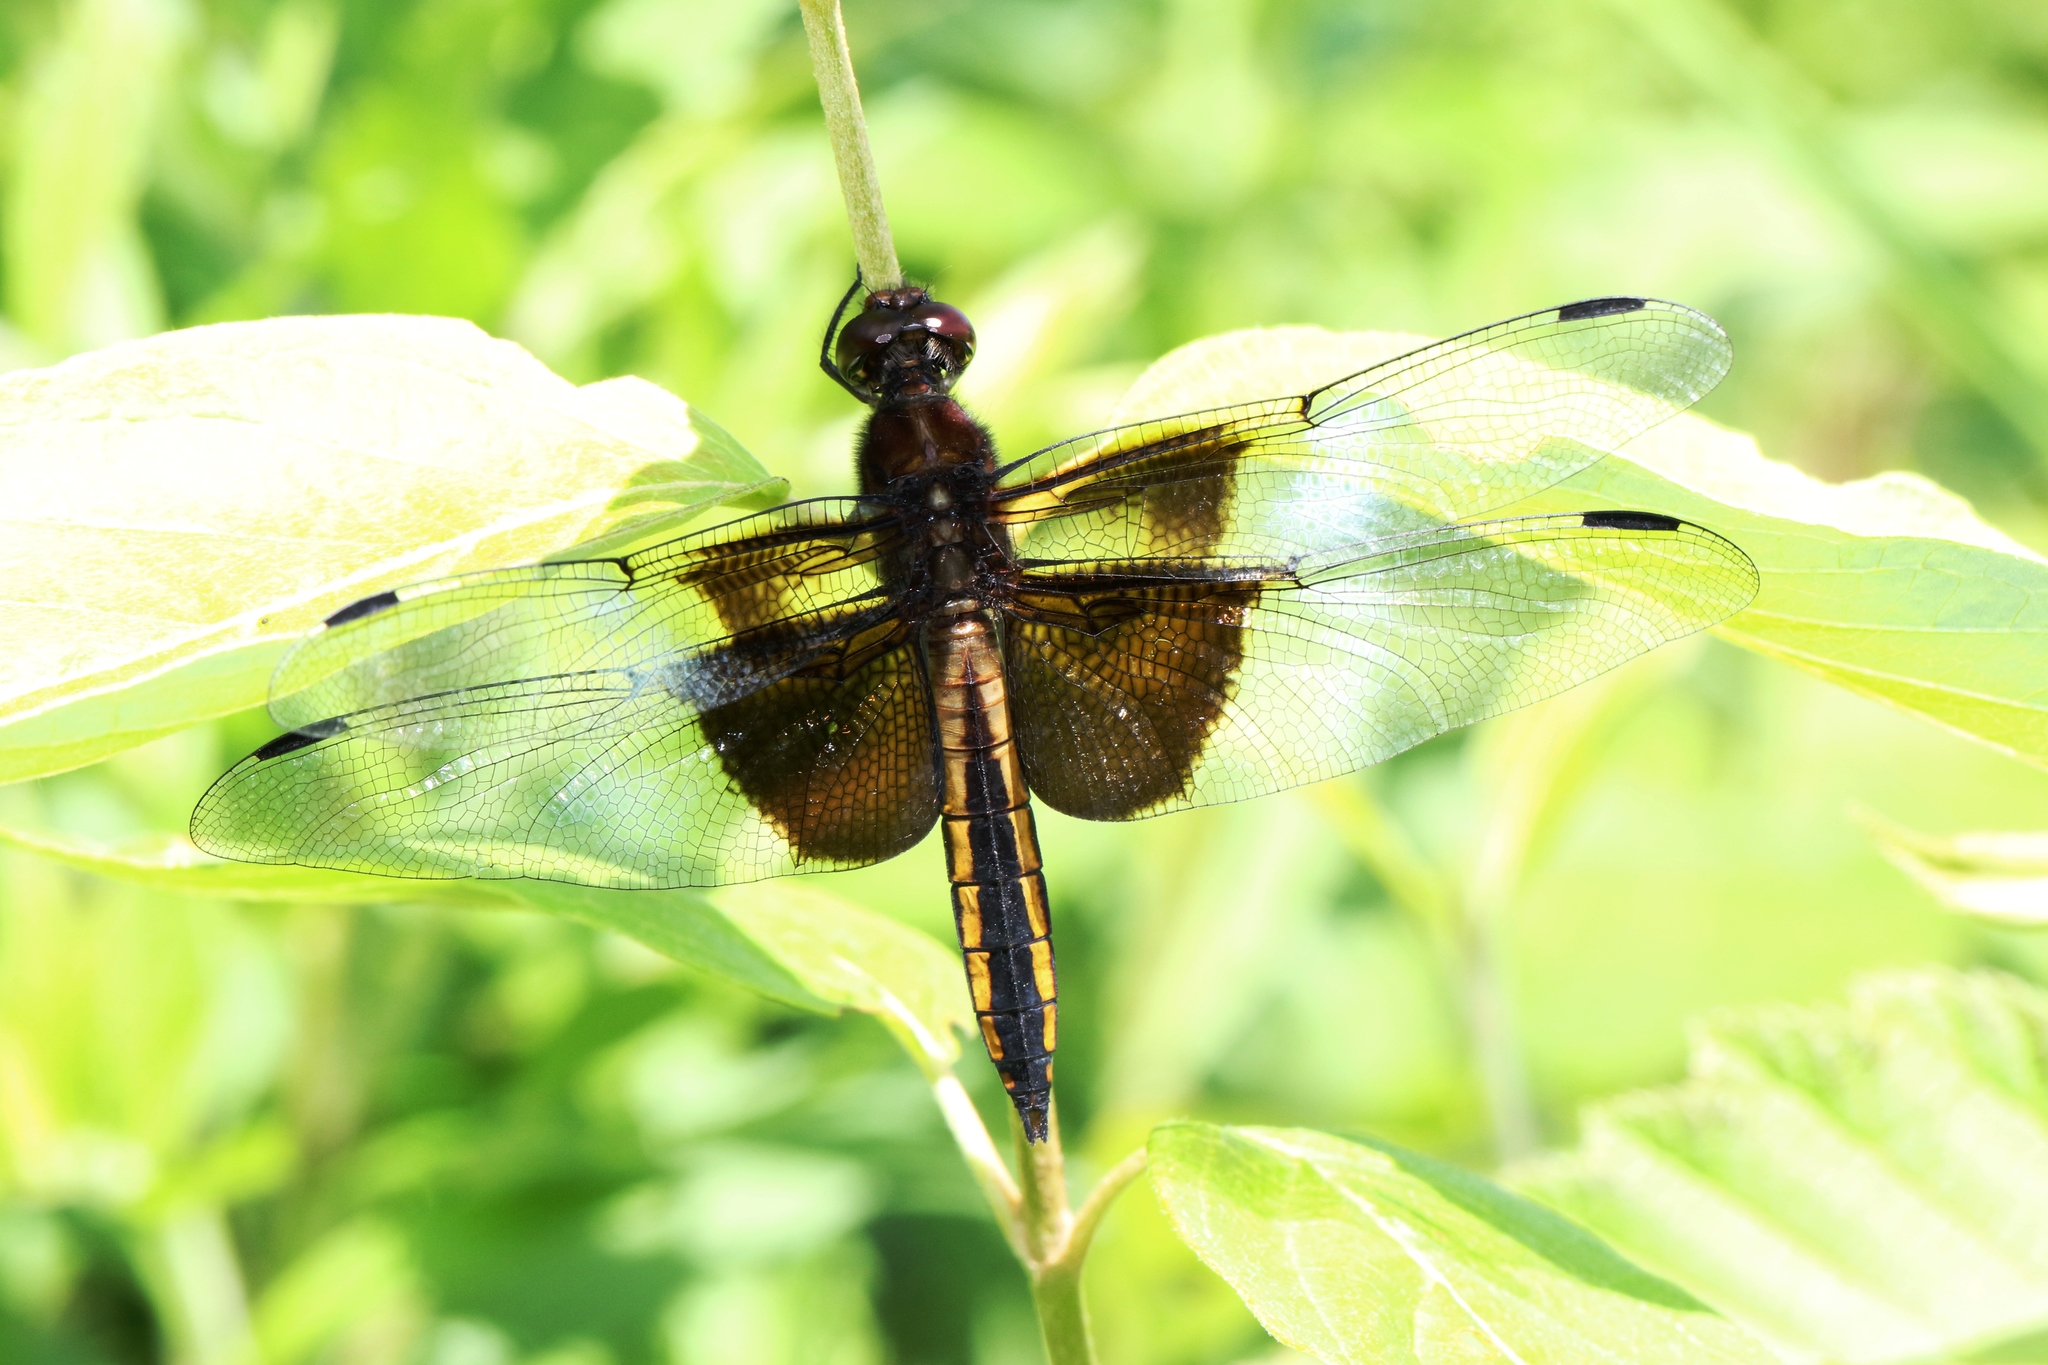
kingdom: Animalia
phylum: Arthropoda
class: Insecta
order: Odonata
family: Libellulidae
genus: Libellula
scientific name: Libellula luctuosa
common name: Widow skimmer
